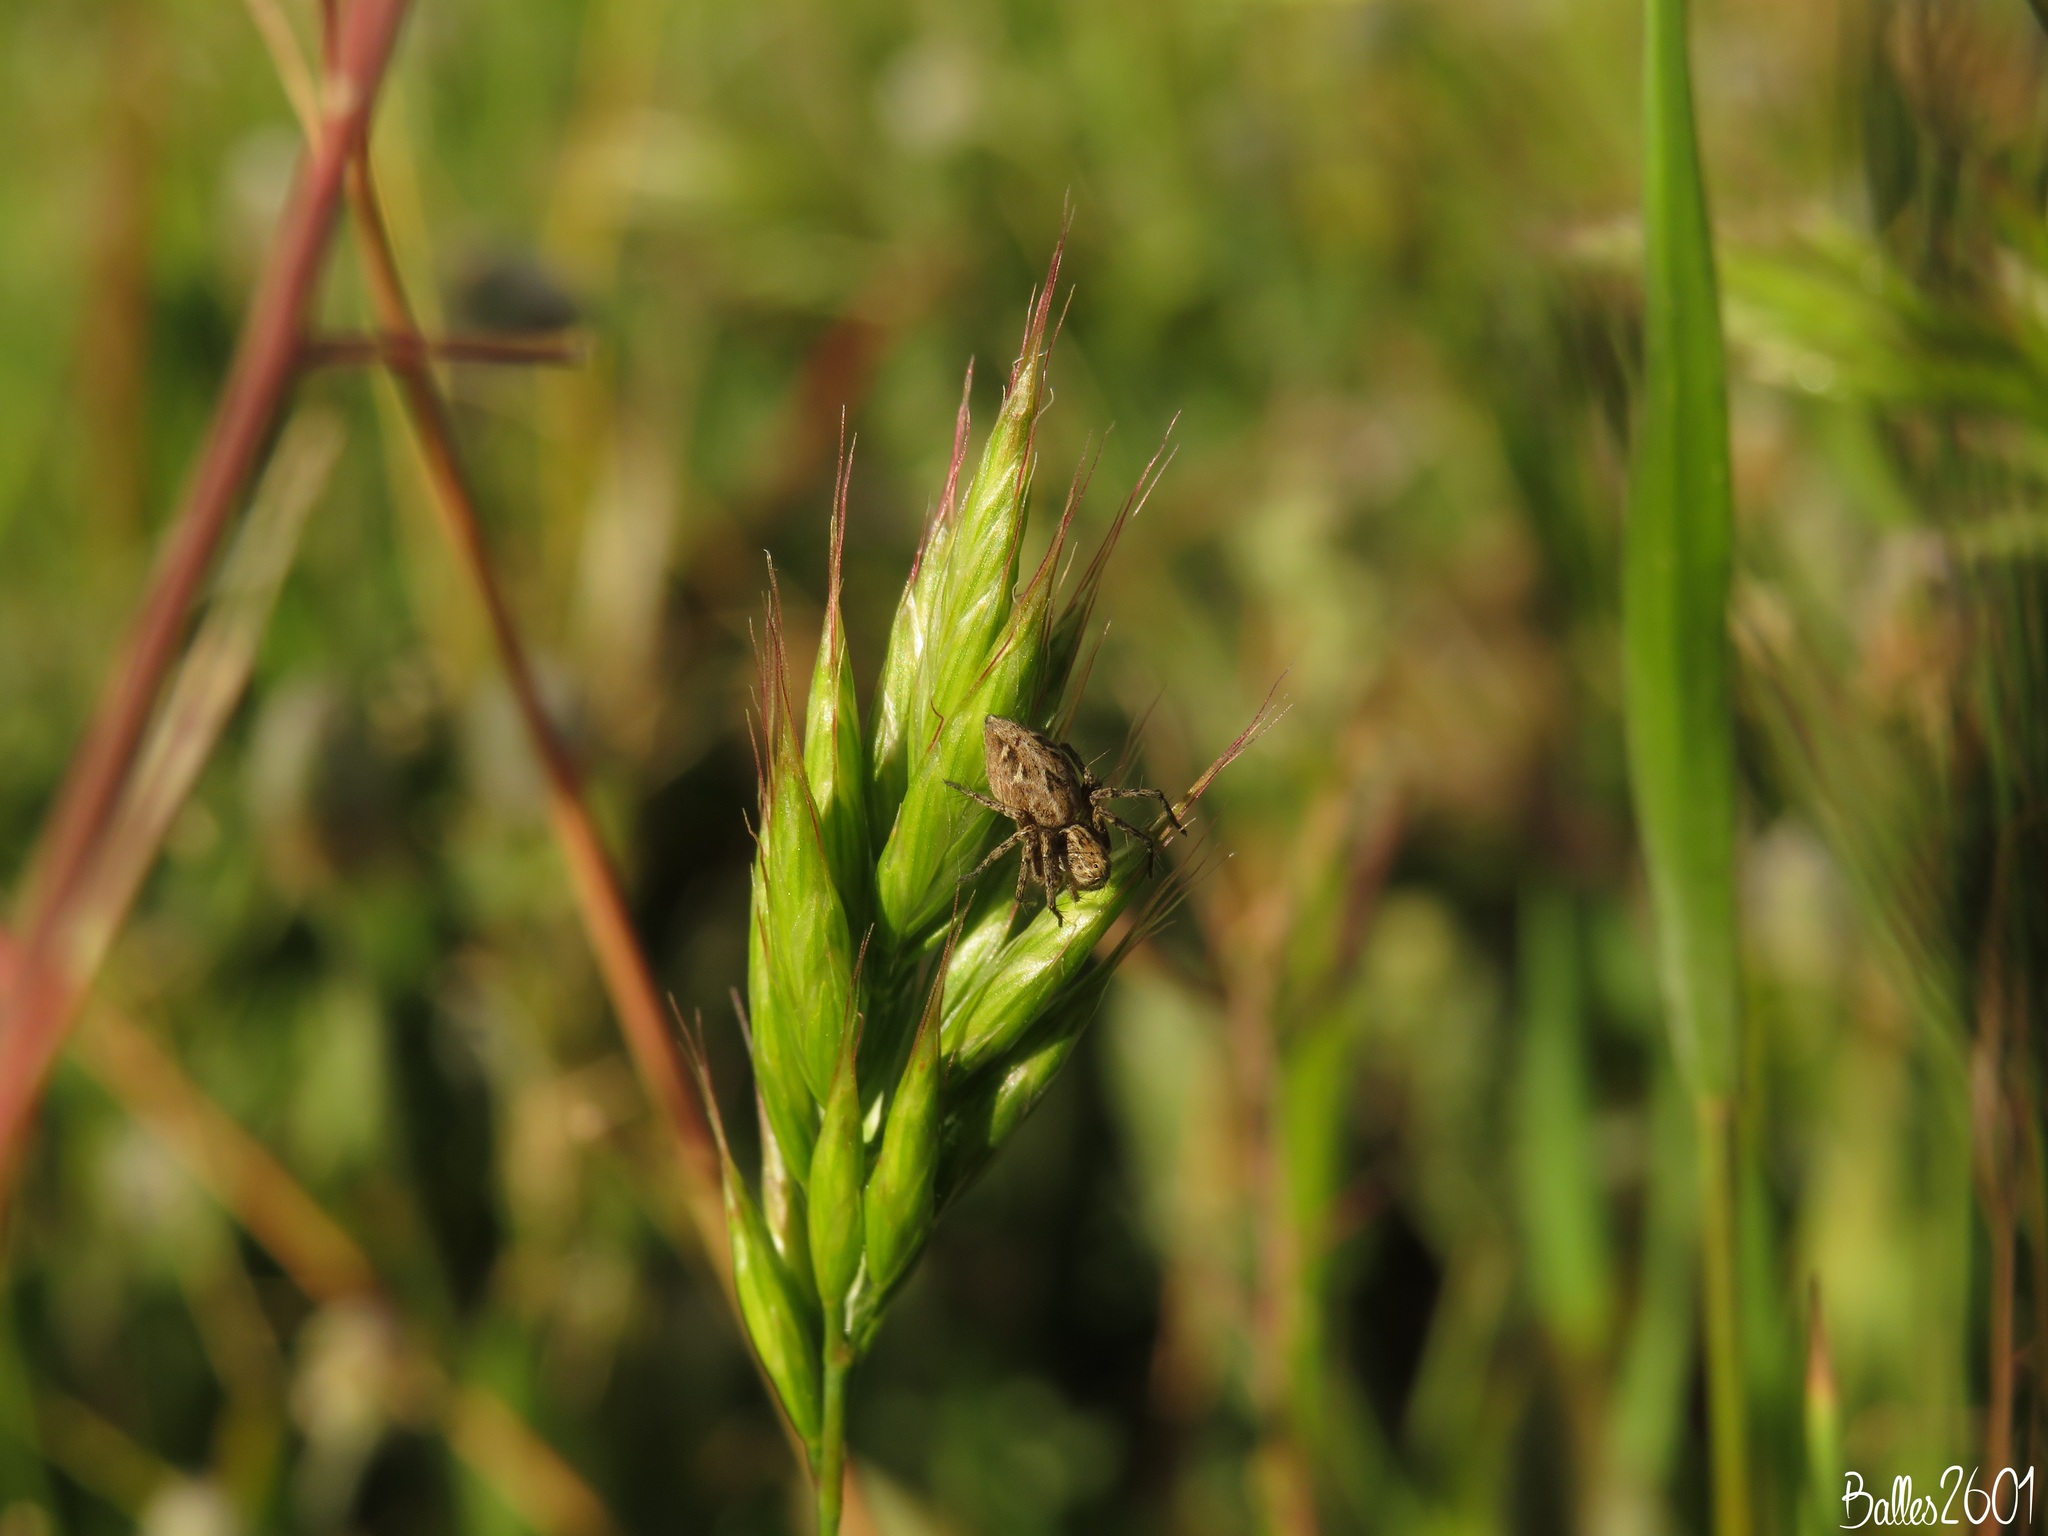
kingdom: Animalia
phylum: Arthropoda
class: Arachnida
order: Araneae
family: Oxyopidae
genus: Oxyopes
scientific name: Oxyopes heterophthalmus
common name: Lynx spider
